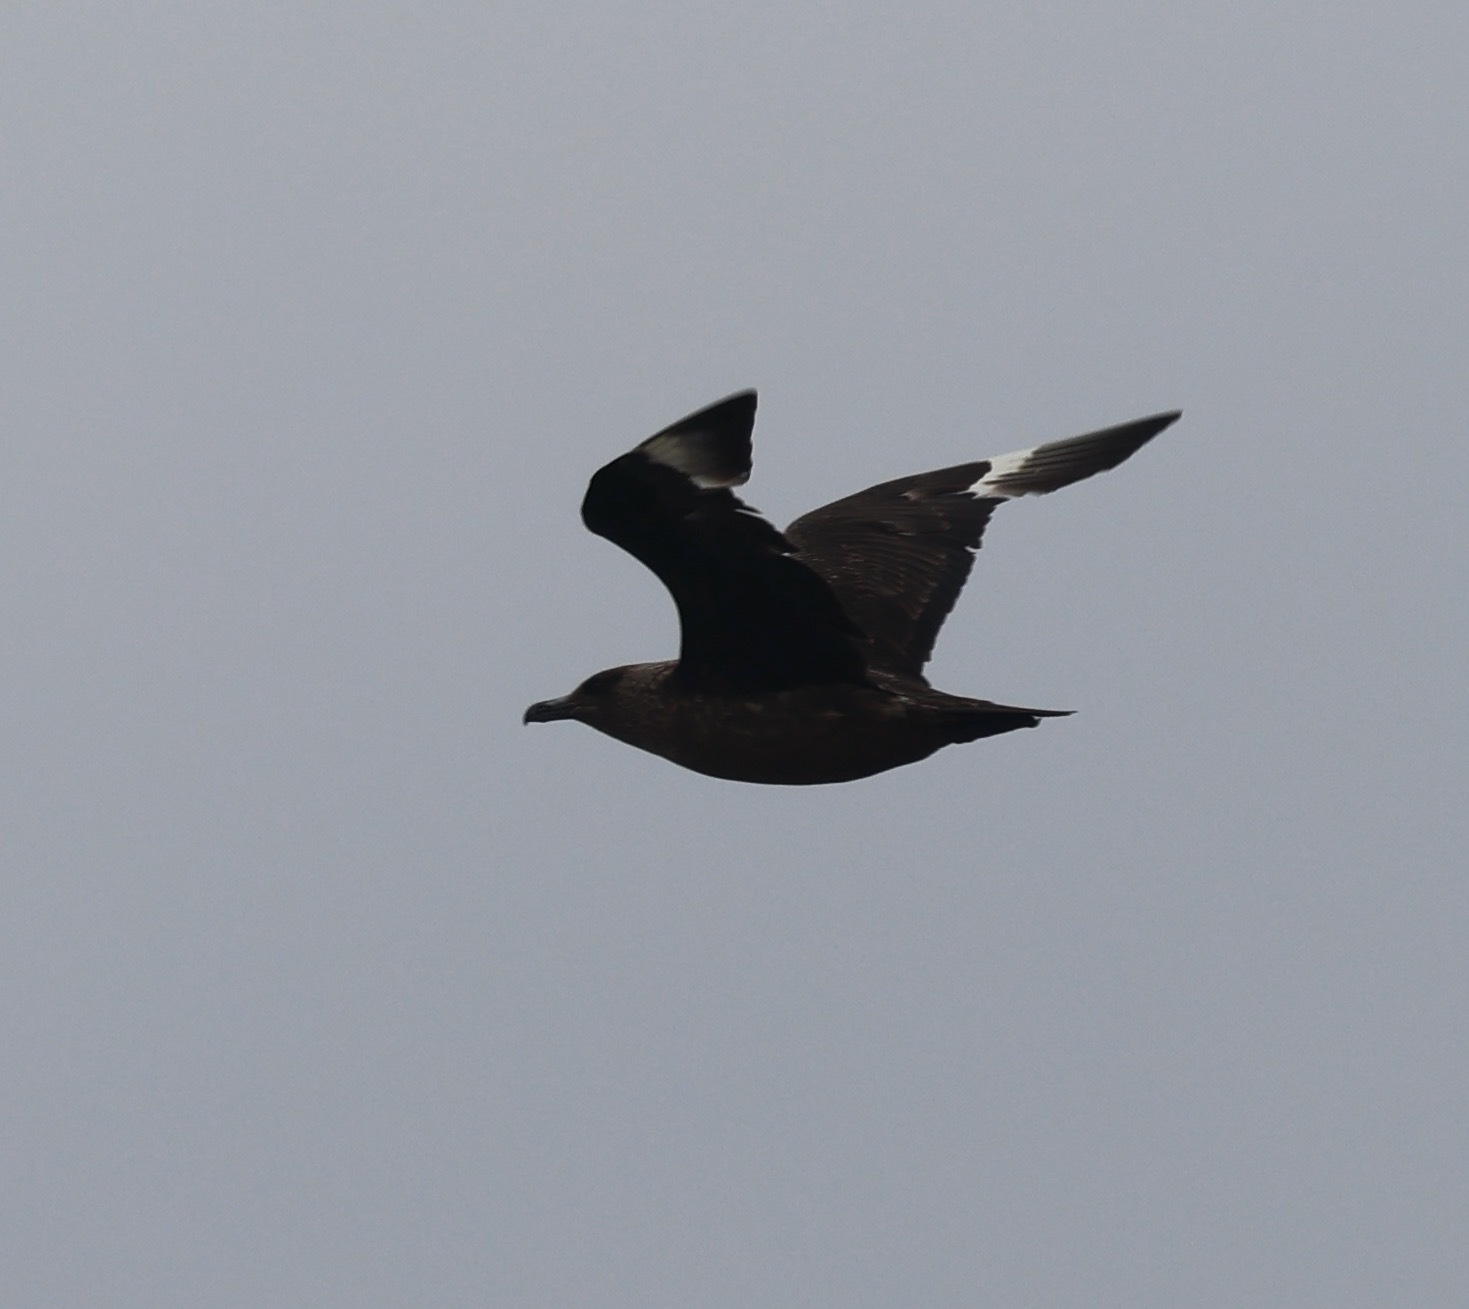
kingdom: Animalia
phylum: Chordata
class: Aves
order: Charadriiformes
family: Stercorariidae
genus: Stercorarius
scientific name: Stercorarius skua
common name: Great skua
